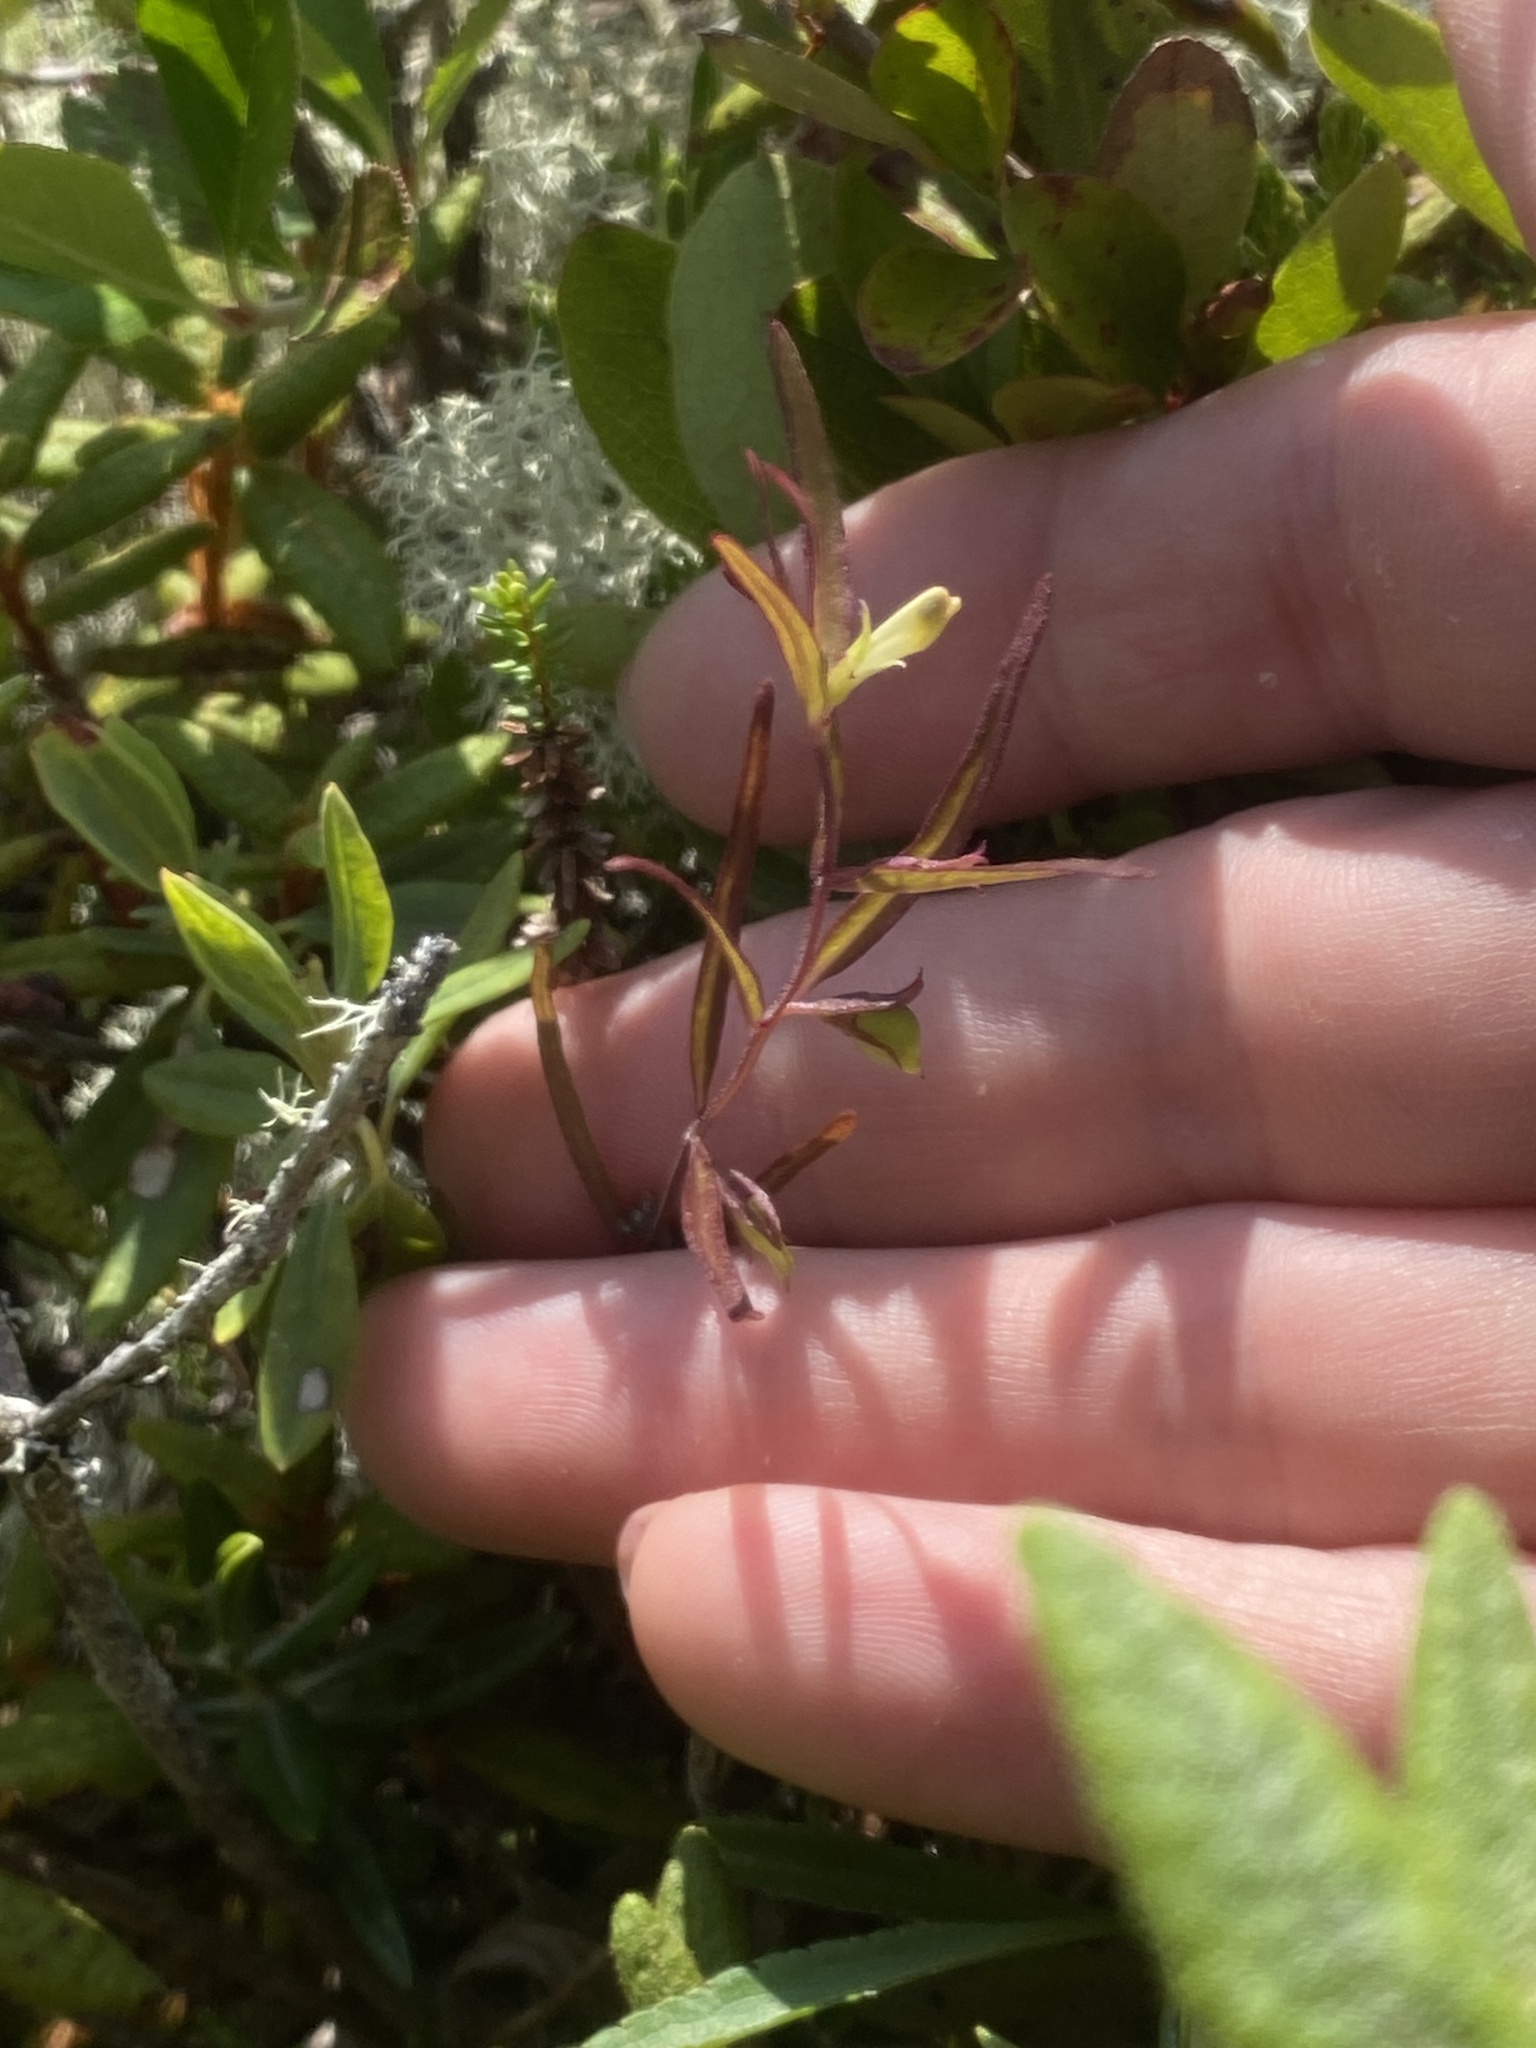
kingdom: Plantae
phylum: Tracheophyta
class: Magnoliopsida
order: Lamiales
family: Orobanchaceae
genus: Melampyrum
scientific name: Melampyrum lineare
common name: American cow-wheat
